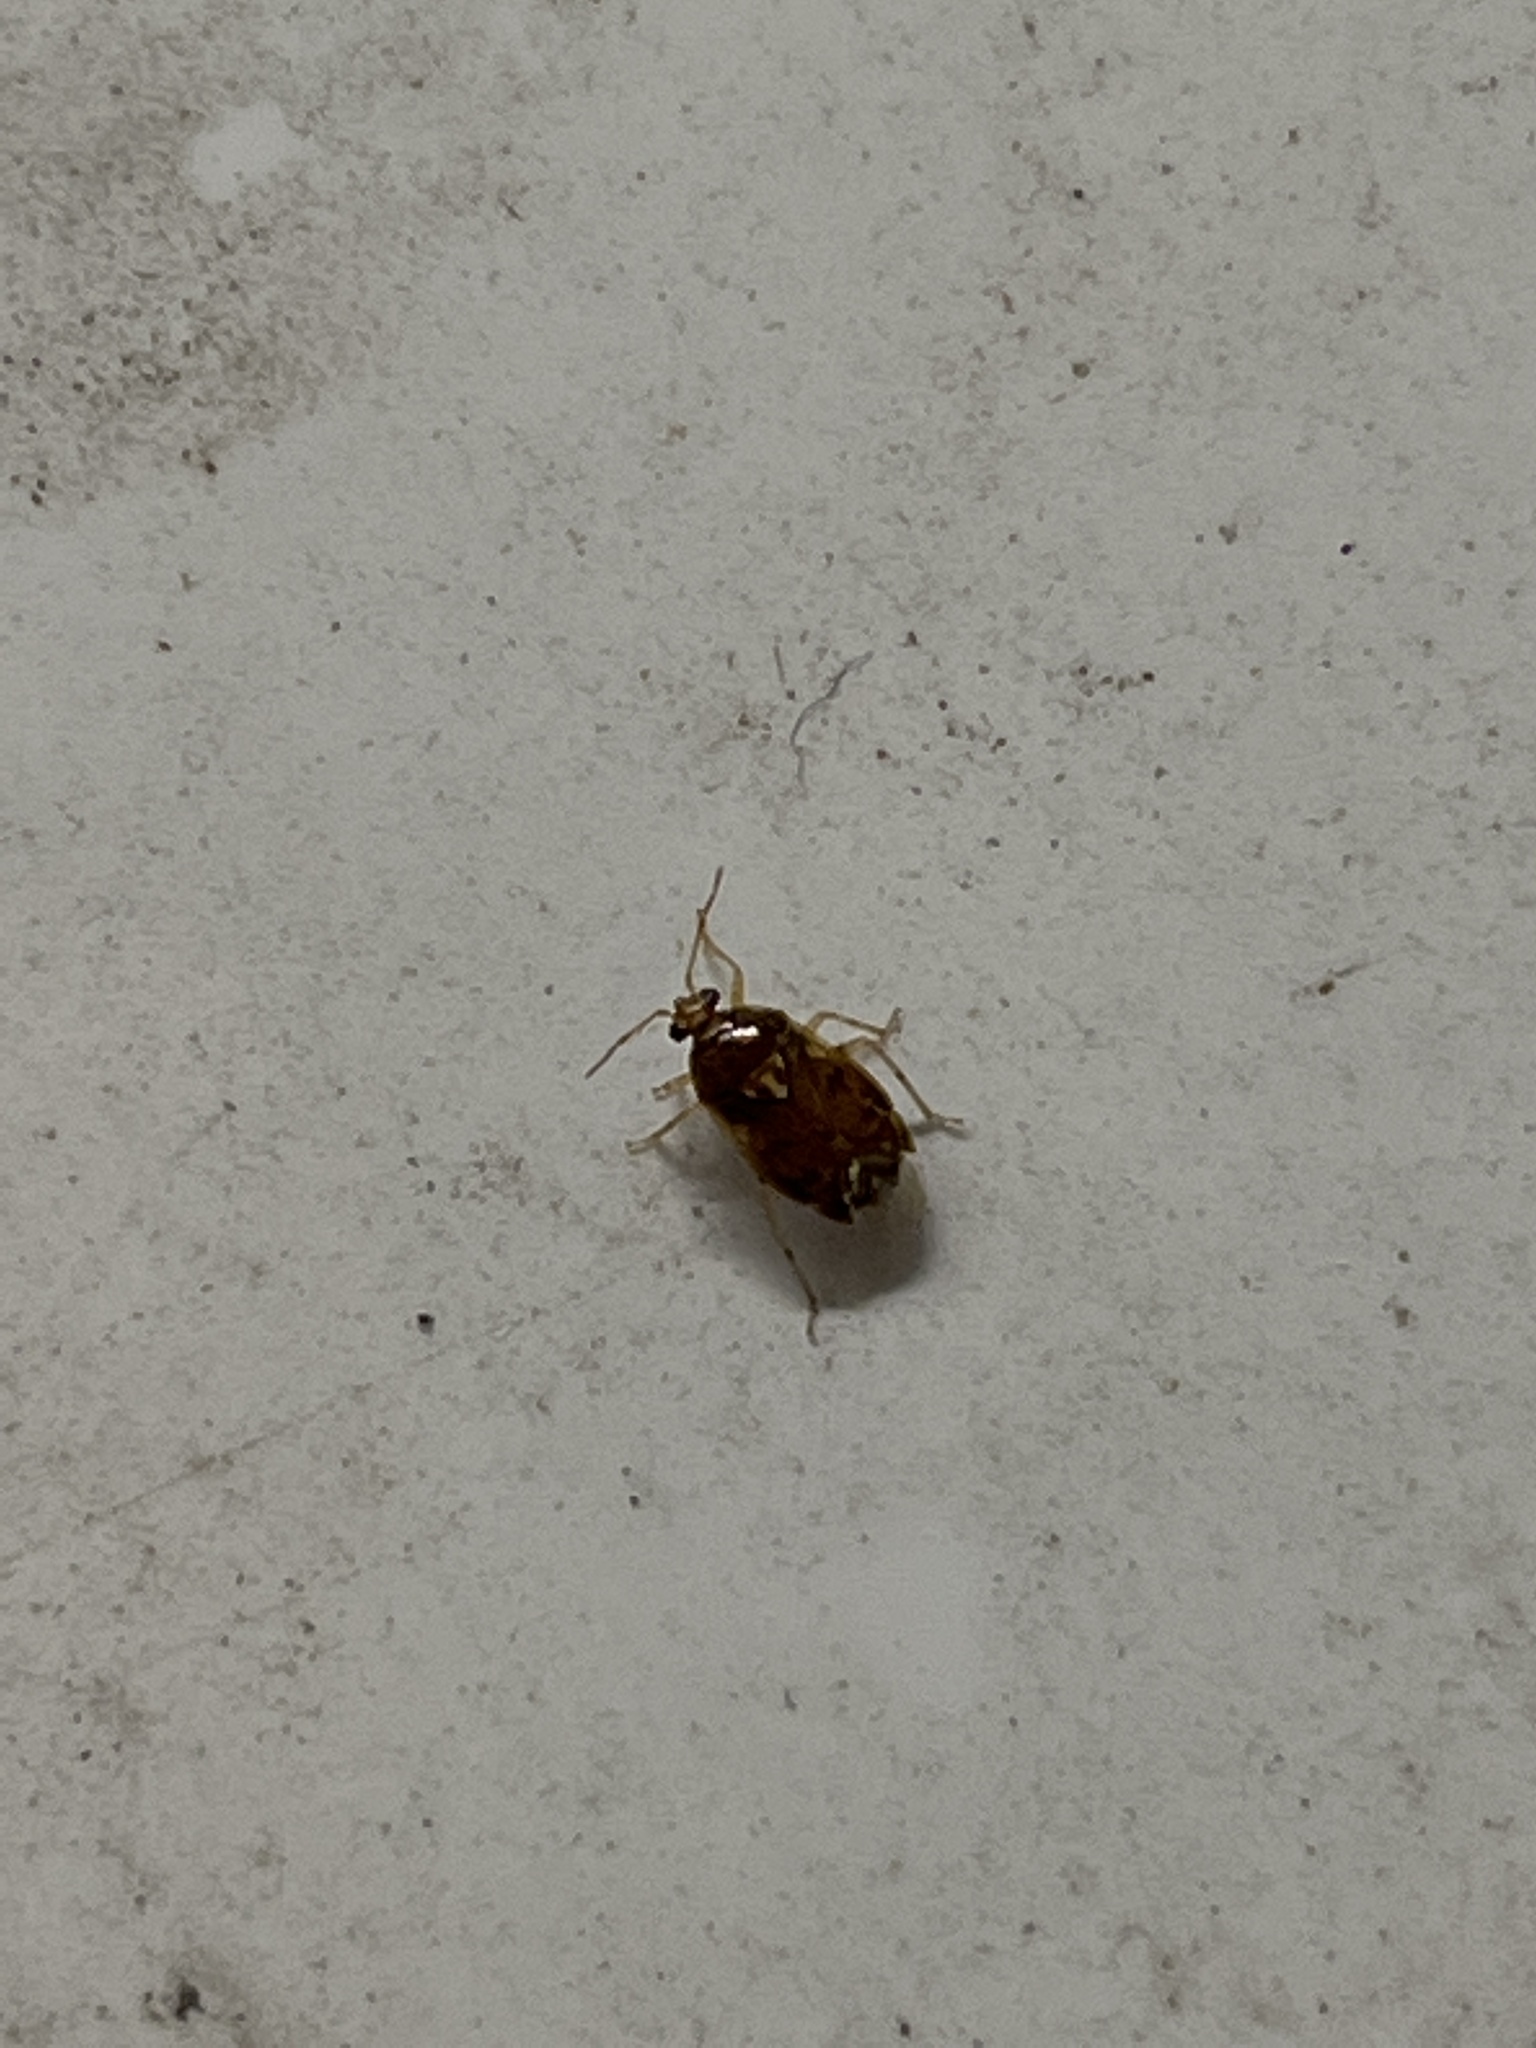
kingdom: Animalia
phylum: Arthropoda
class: Insecta
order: Hemiptera
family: Miridae
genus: Deraeocoris
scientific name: Deraeocoris lutescens
